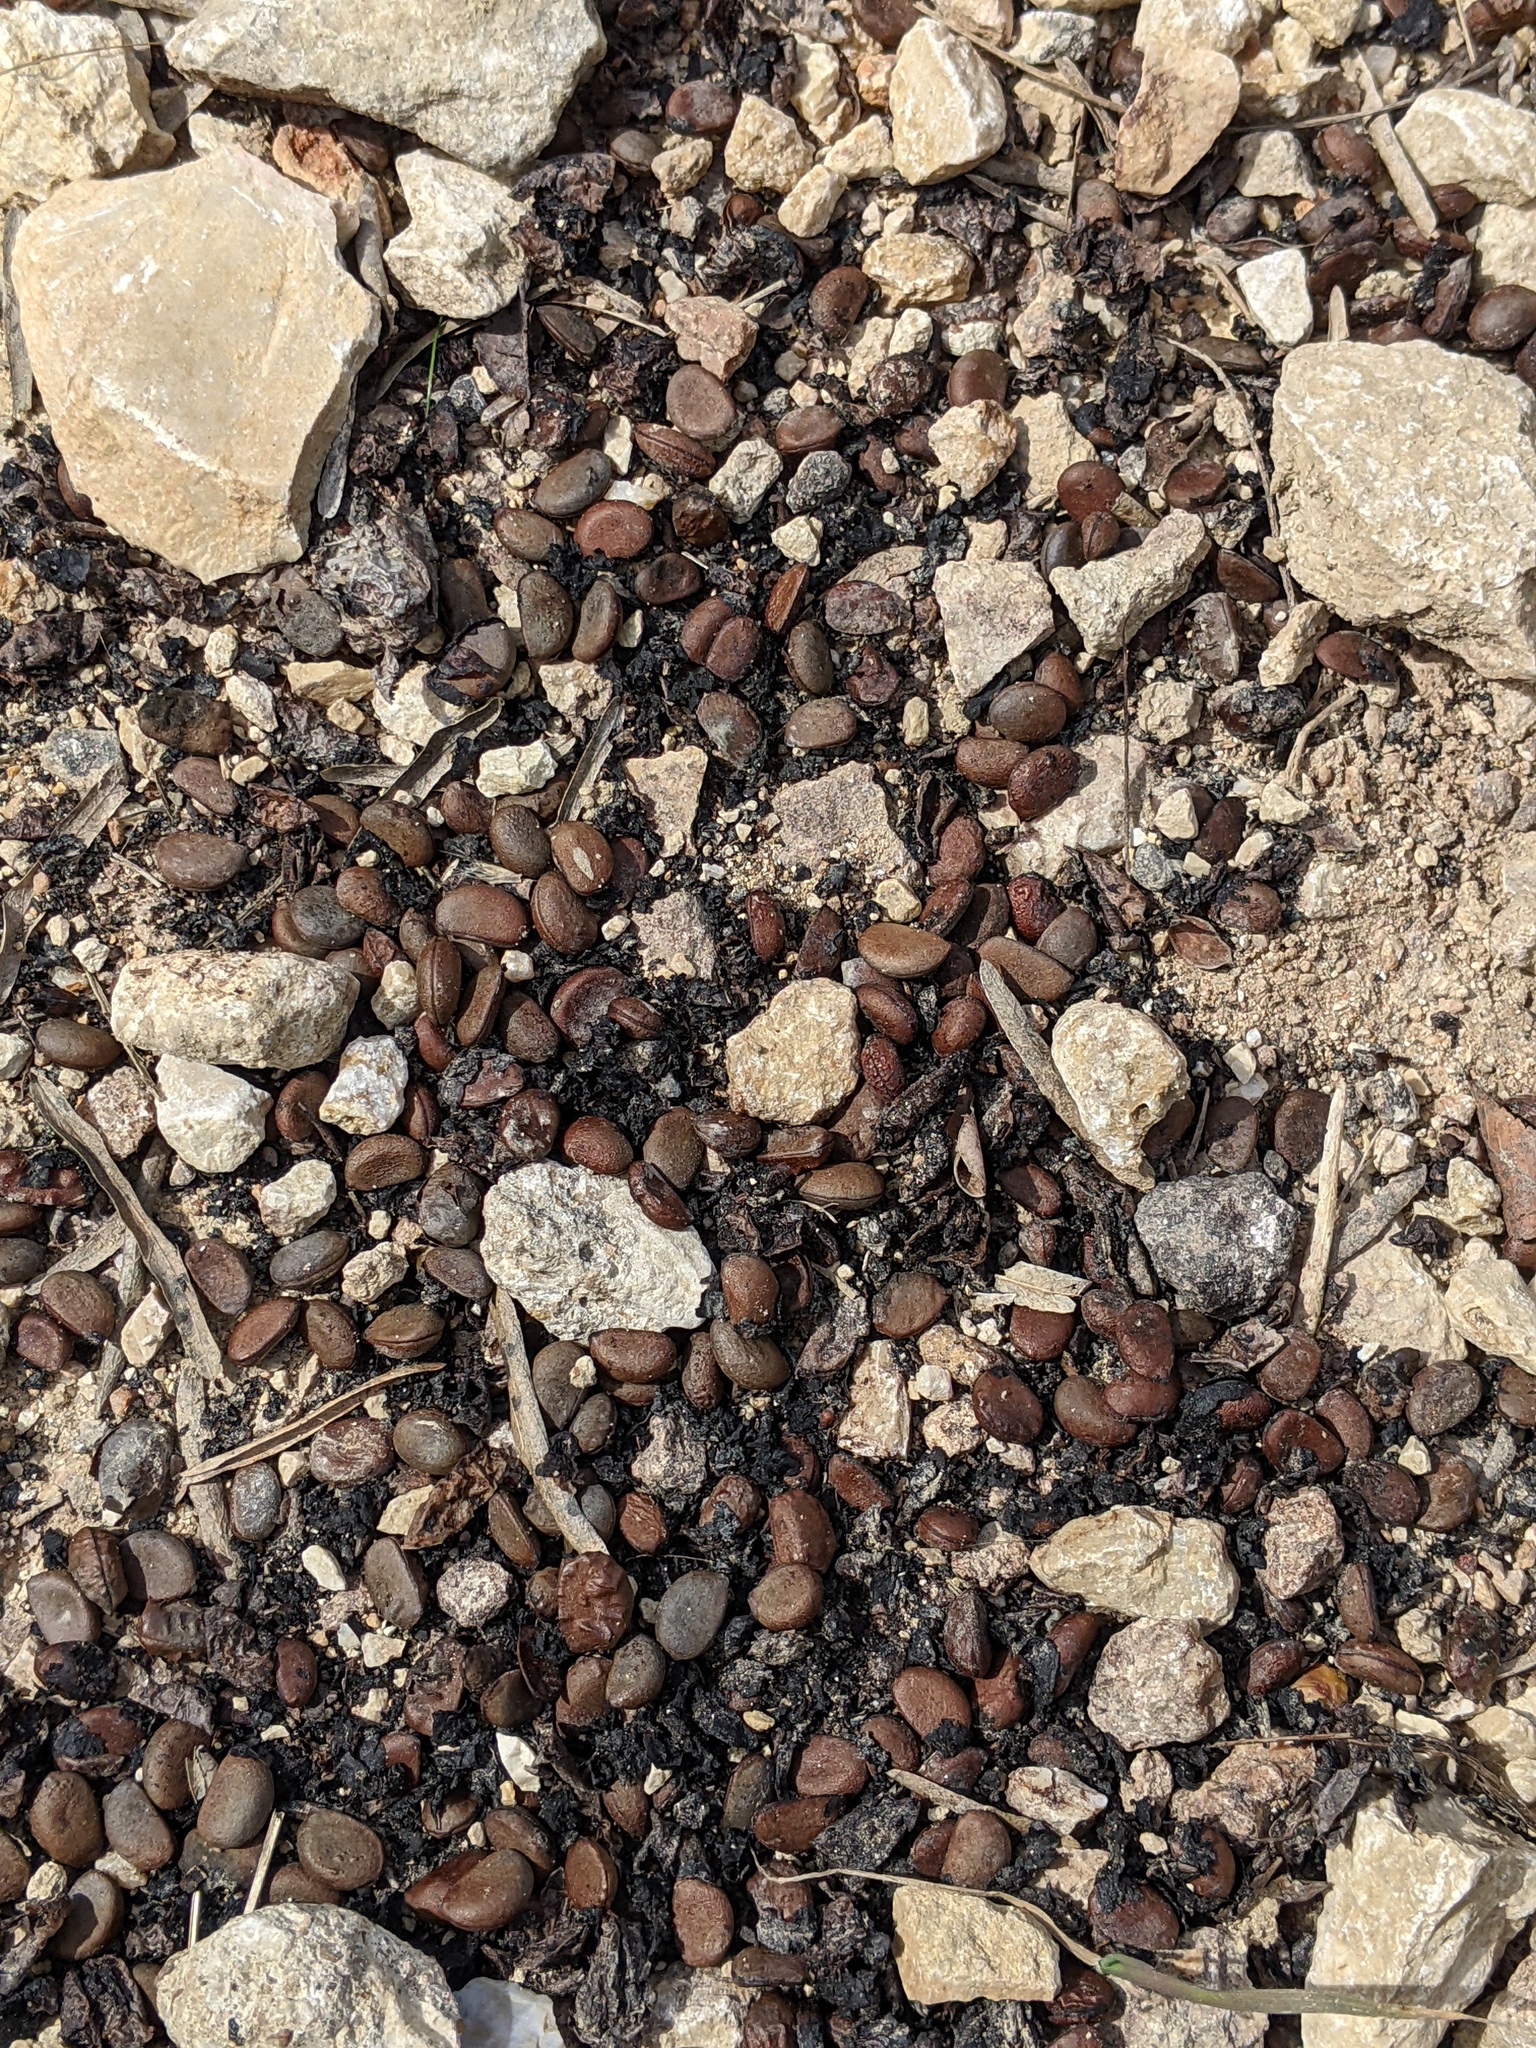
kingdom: Plantae
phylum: Tracheophyta
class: Magnoliopsida
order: Ericales
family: Ebenaceae
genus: Diospyros
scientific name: Diospyros texana
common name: Texas persimmon
